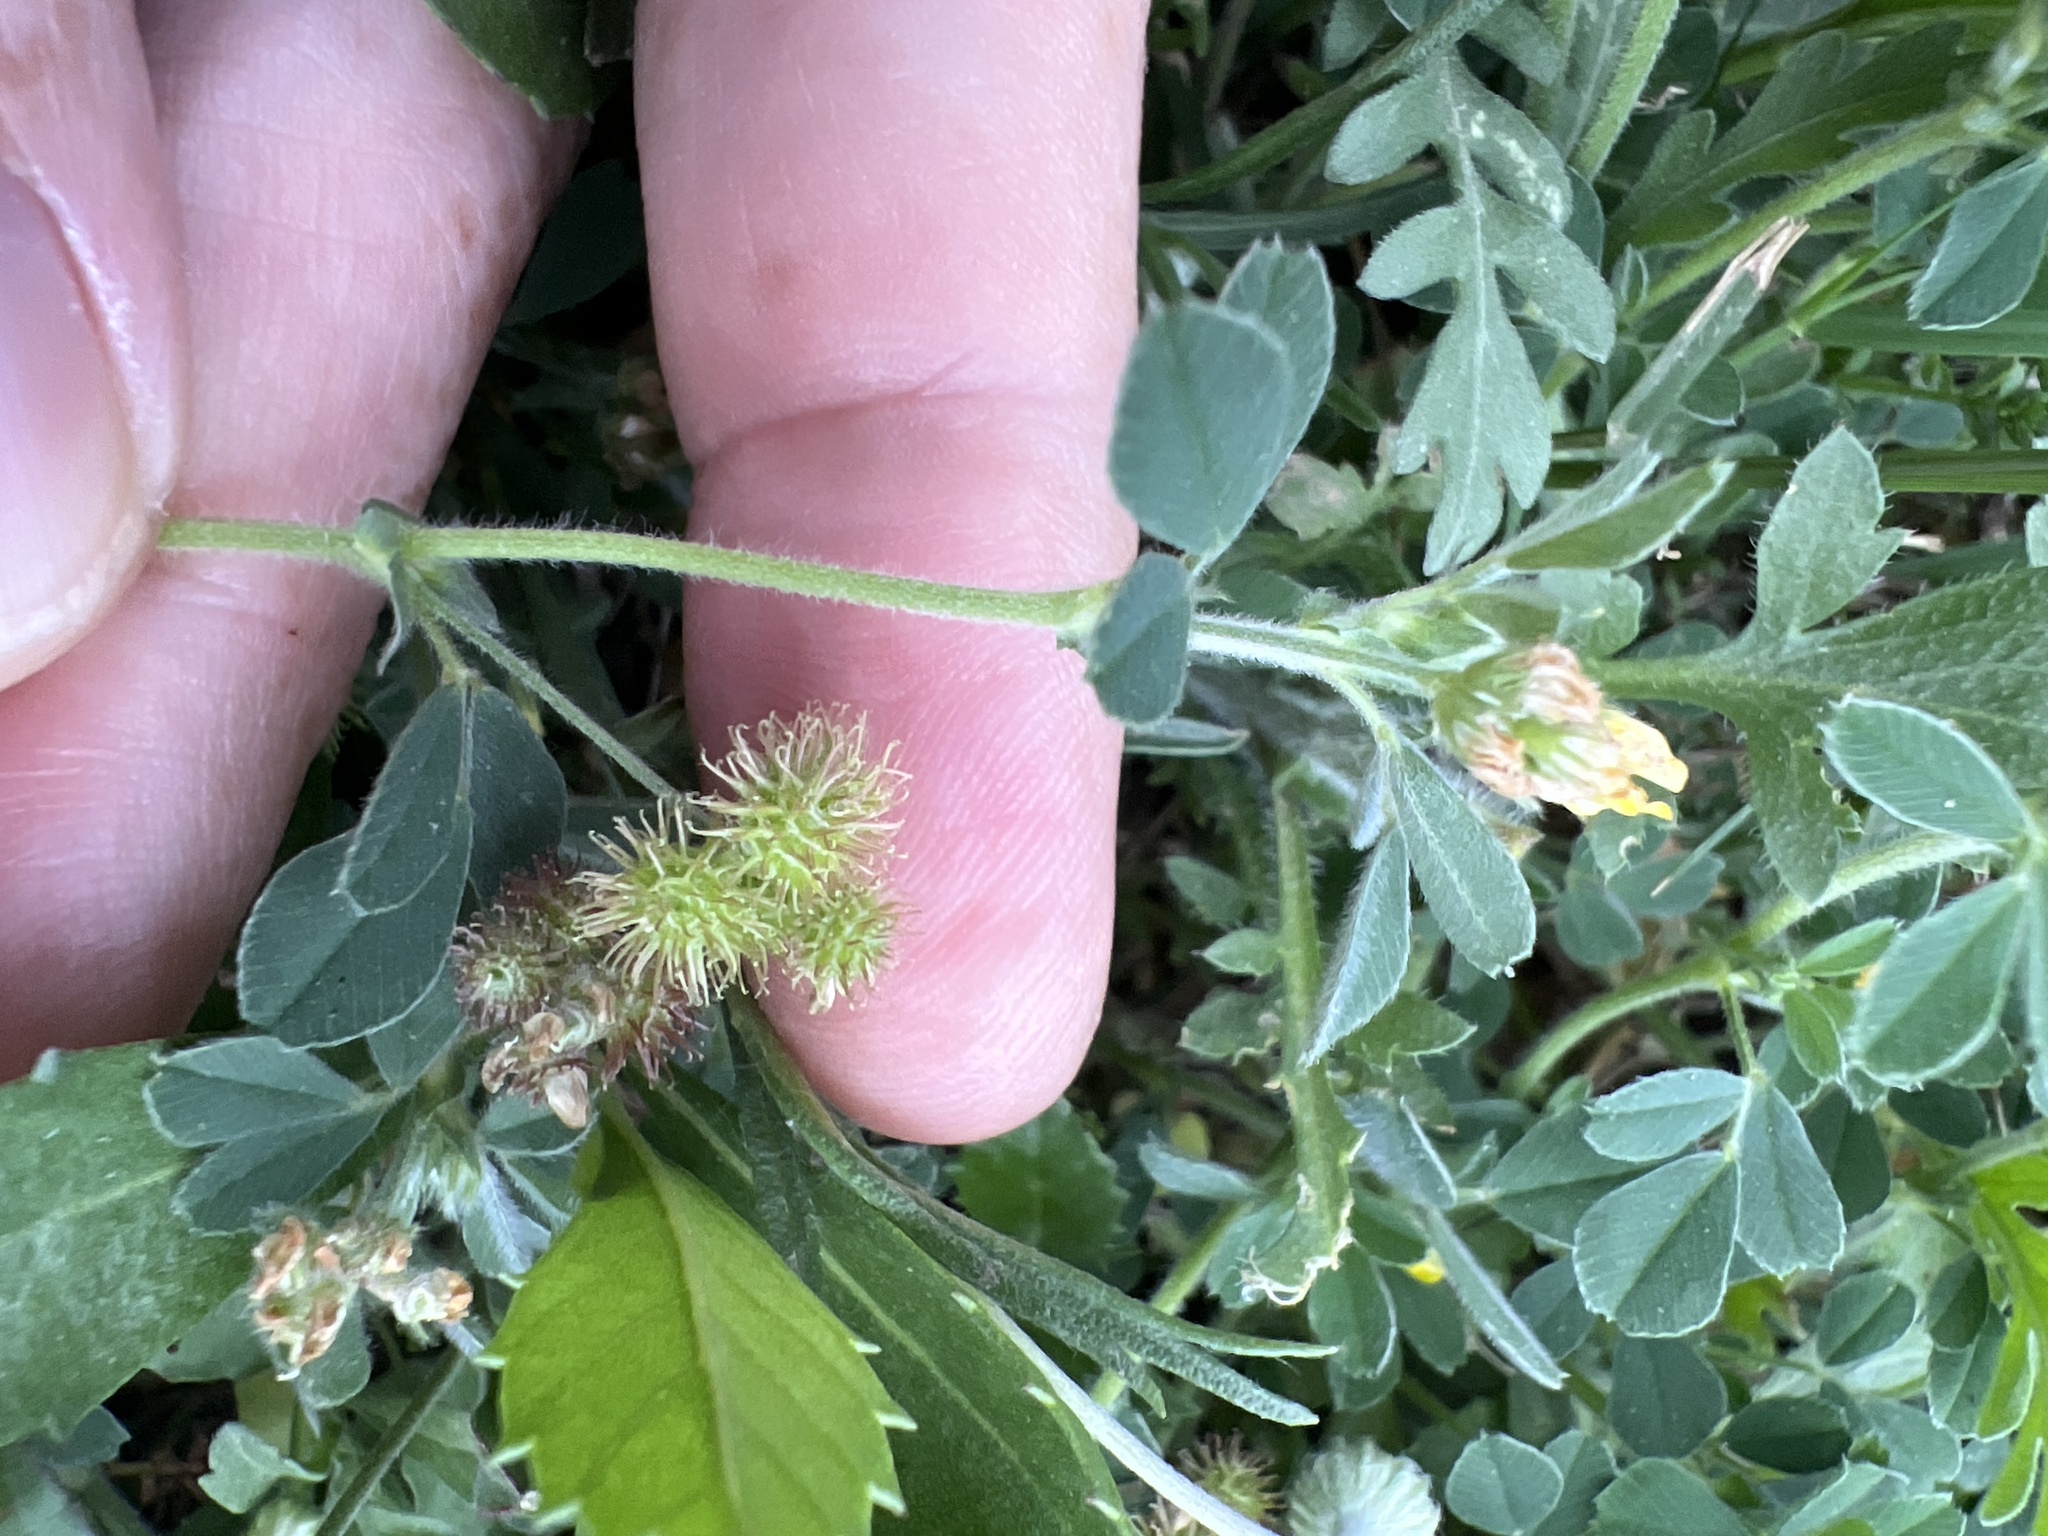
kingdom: Plantae
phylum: Tracheophyta
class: Magnoliopsida
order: Fabales
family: Fabaceae
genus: Medicago
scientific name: Medicago minima
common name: Little bur-clover
